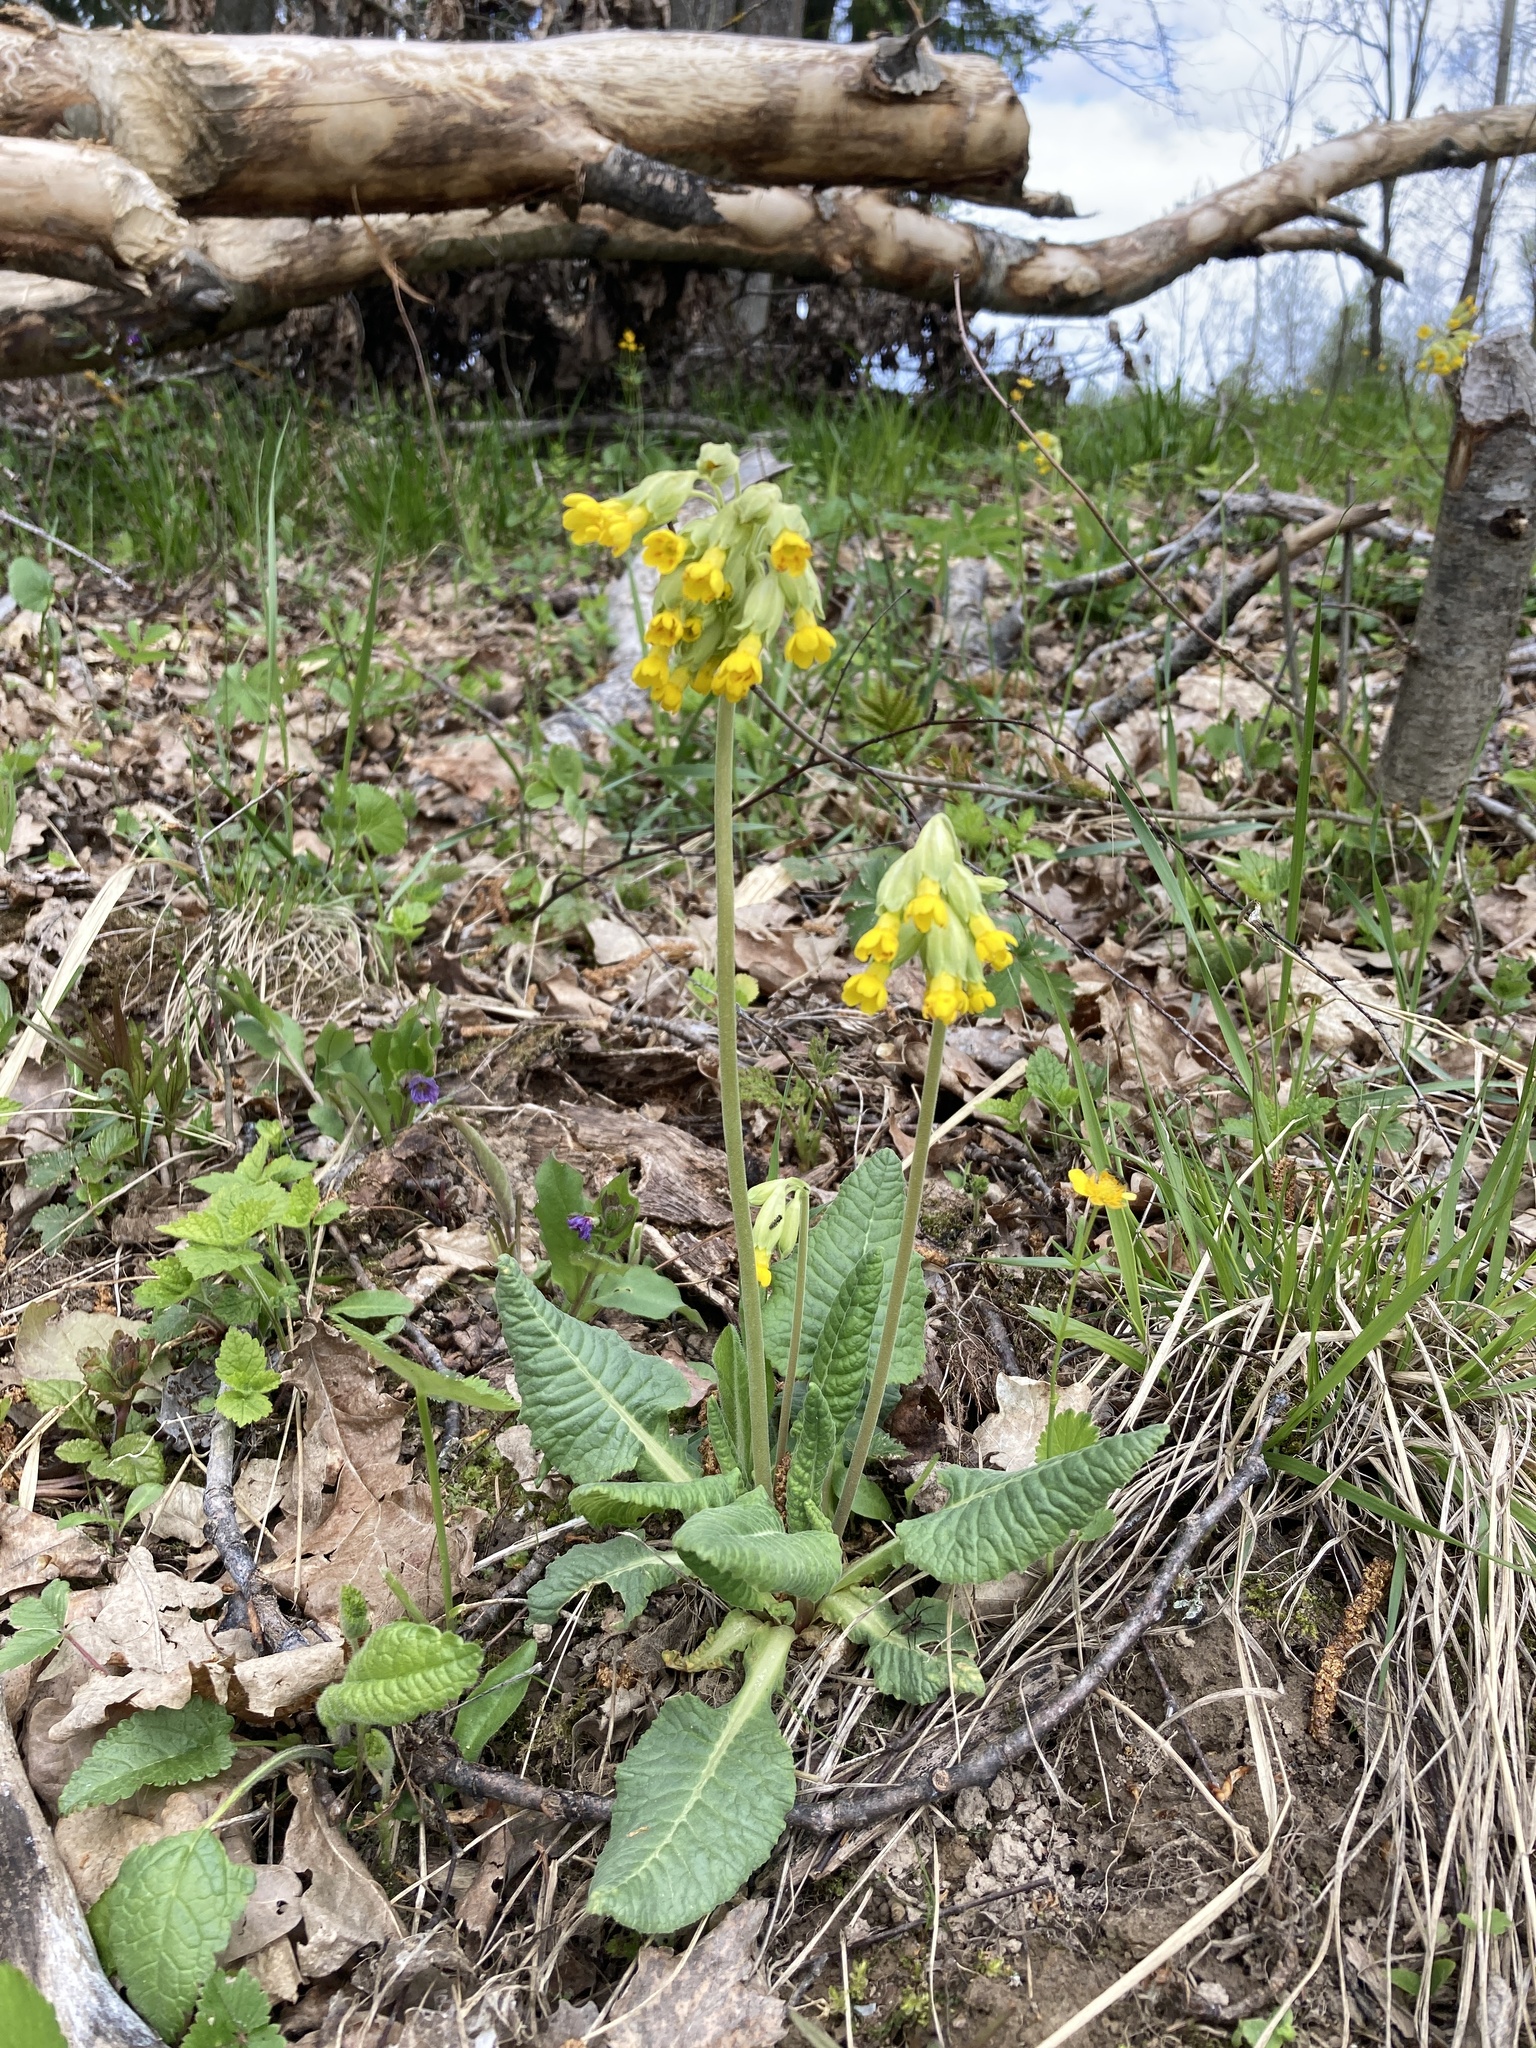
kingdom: Plantae
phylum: Tracheophyta
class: Magnoliopsida
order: Ericales
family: Primulaceae
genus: Primula
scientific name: Primula veris
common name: Cowslip
